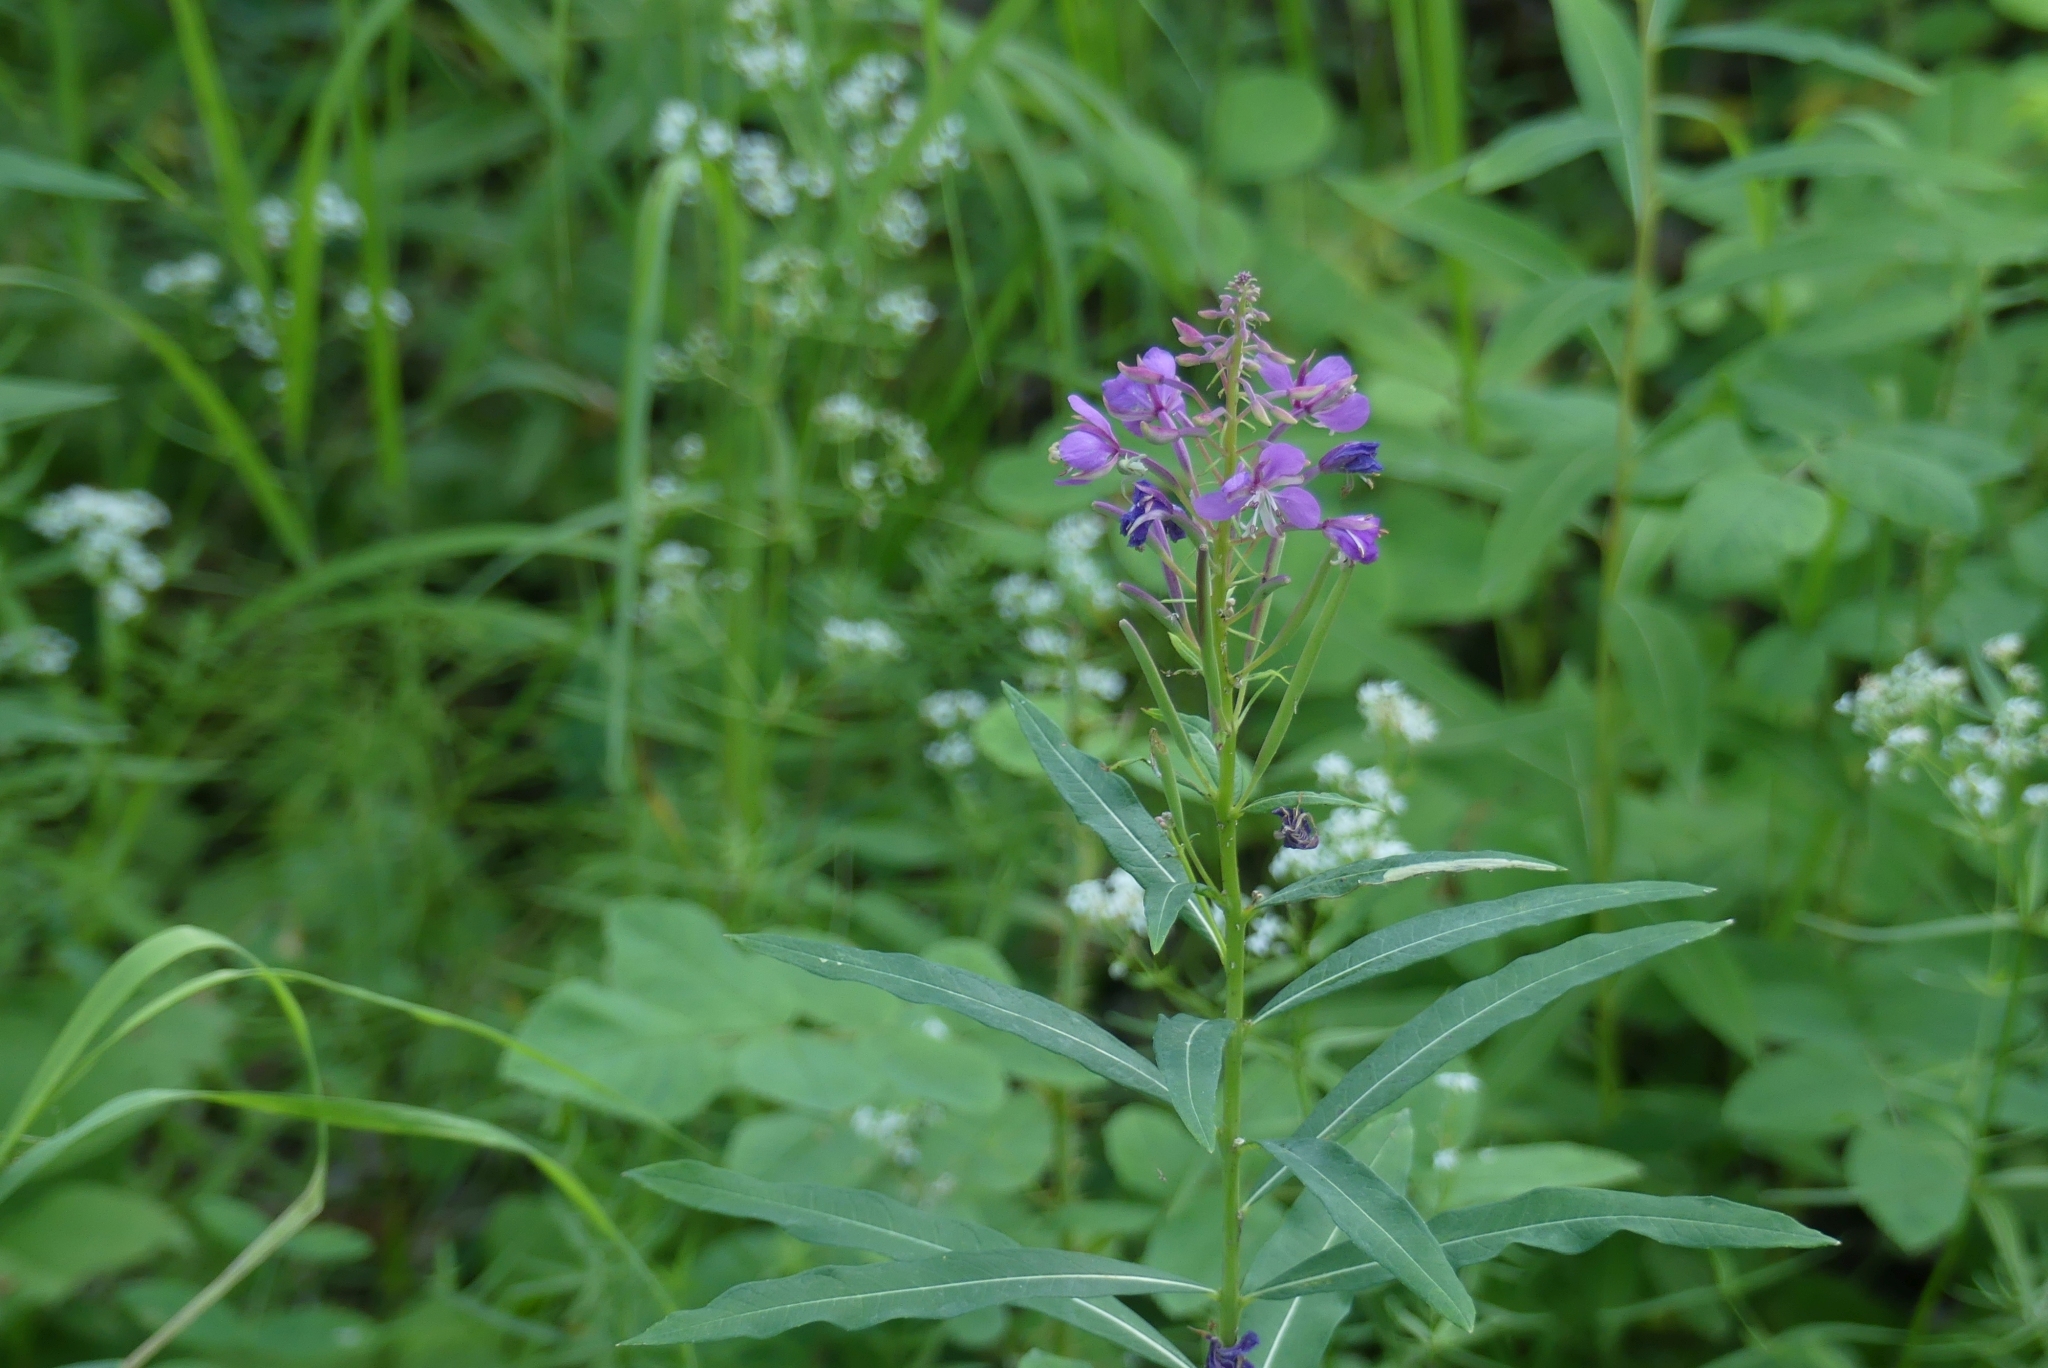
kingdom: Plantae
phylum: Tracheophyta
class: Magnoliopsida
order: Myrtales
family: Onagraceae
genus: Chamaenerion
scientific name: Chamaenerion angustifolium
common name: Fireweed
